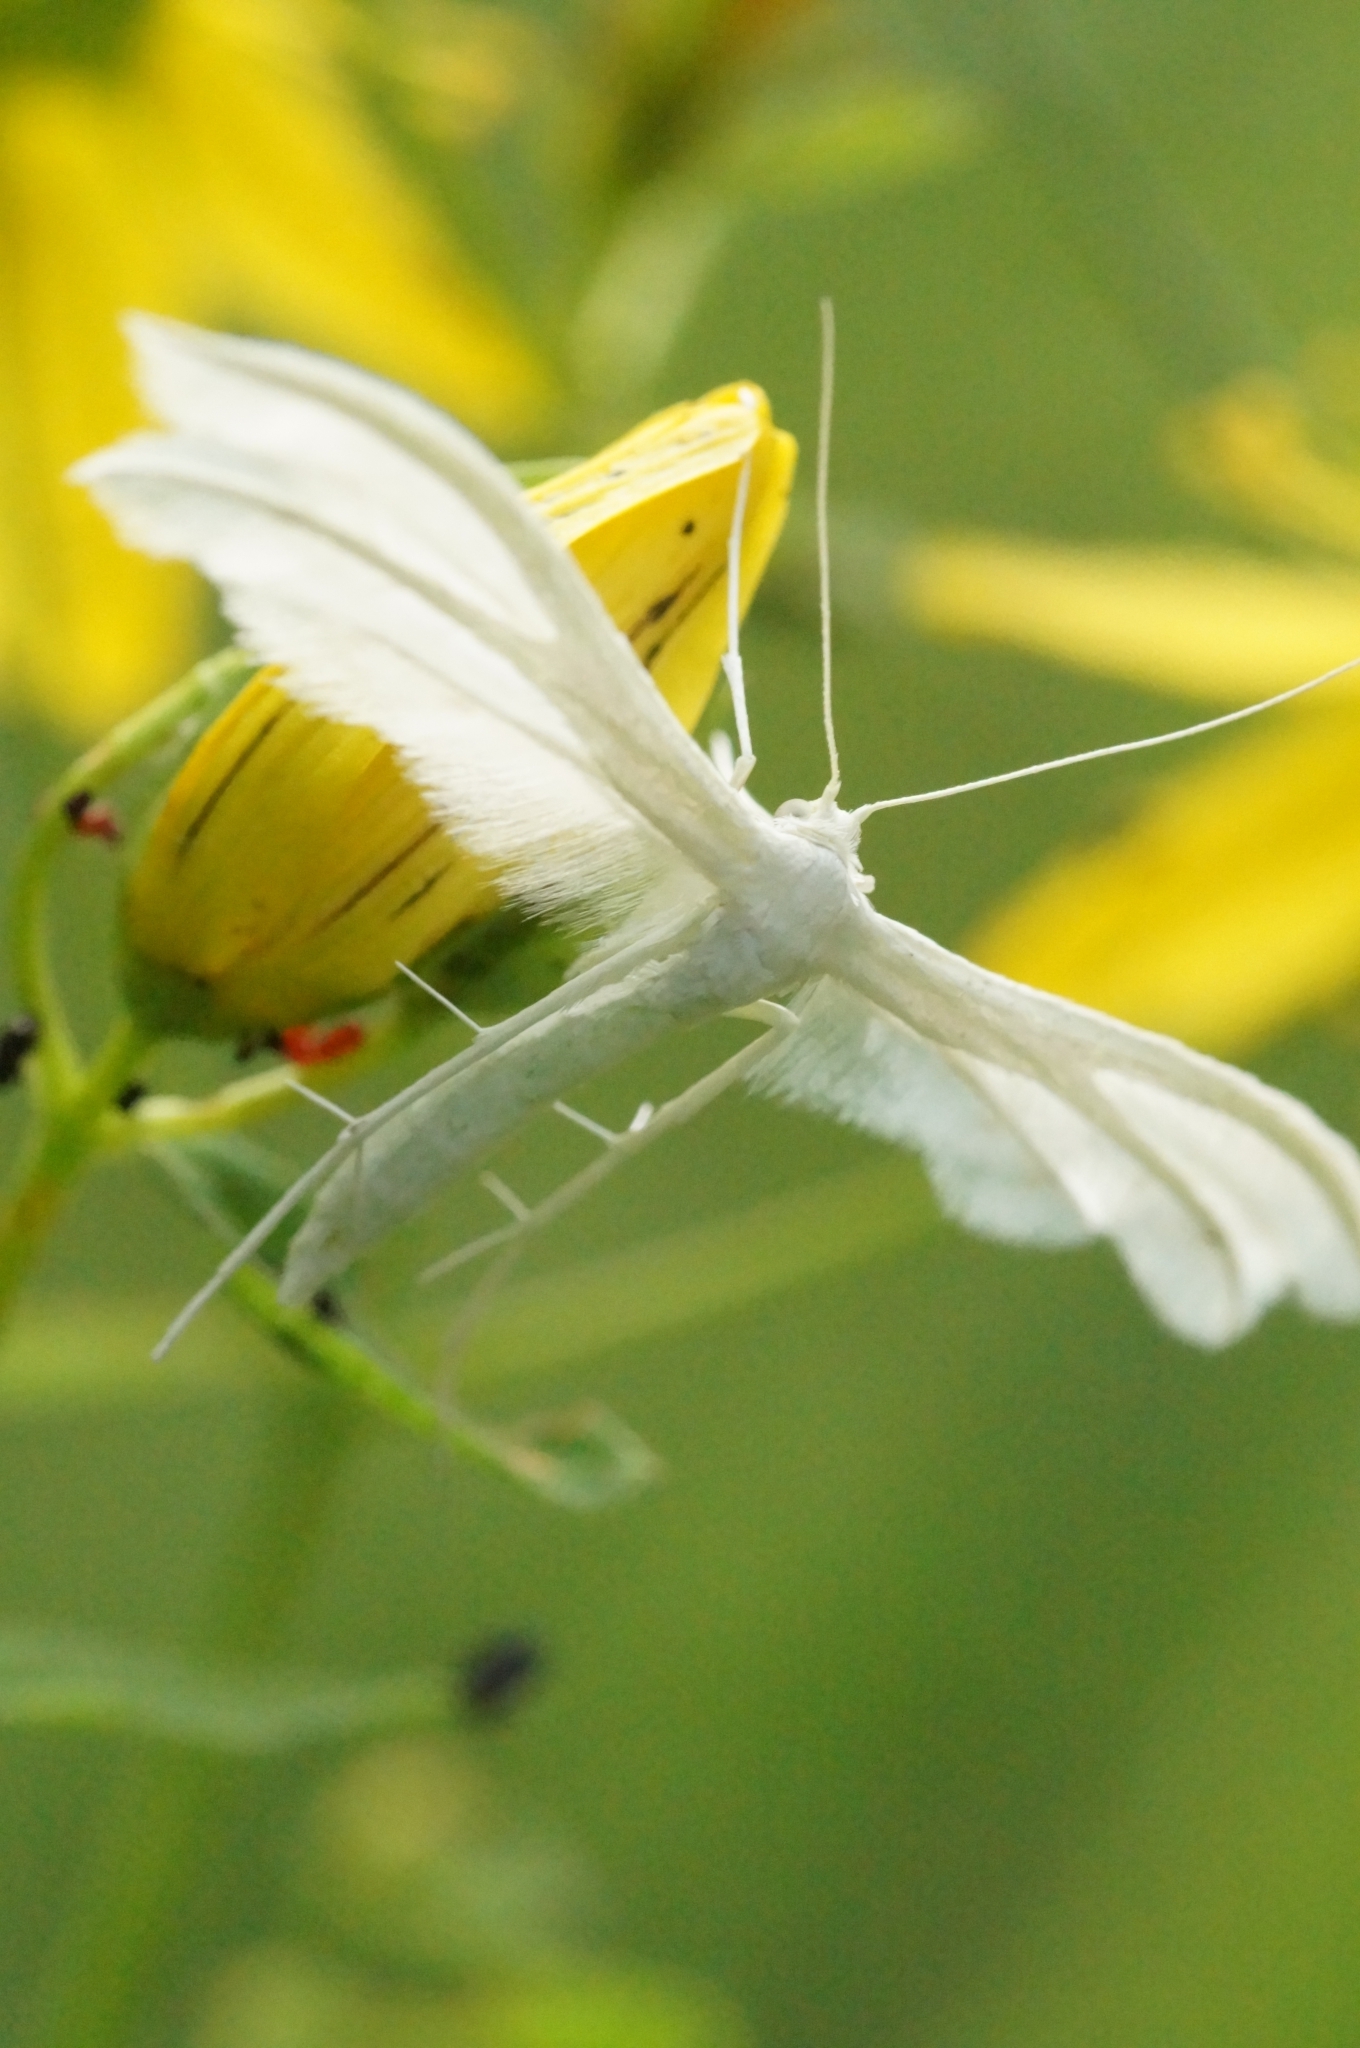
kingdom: Animalia
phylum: Arthropoda
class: Insecta
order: Lepidoptera
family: Pterophoridae
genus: Pterophorus
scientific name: Pterophorus pentadactyla
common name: White plume moth
